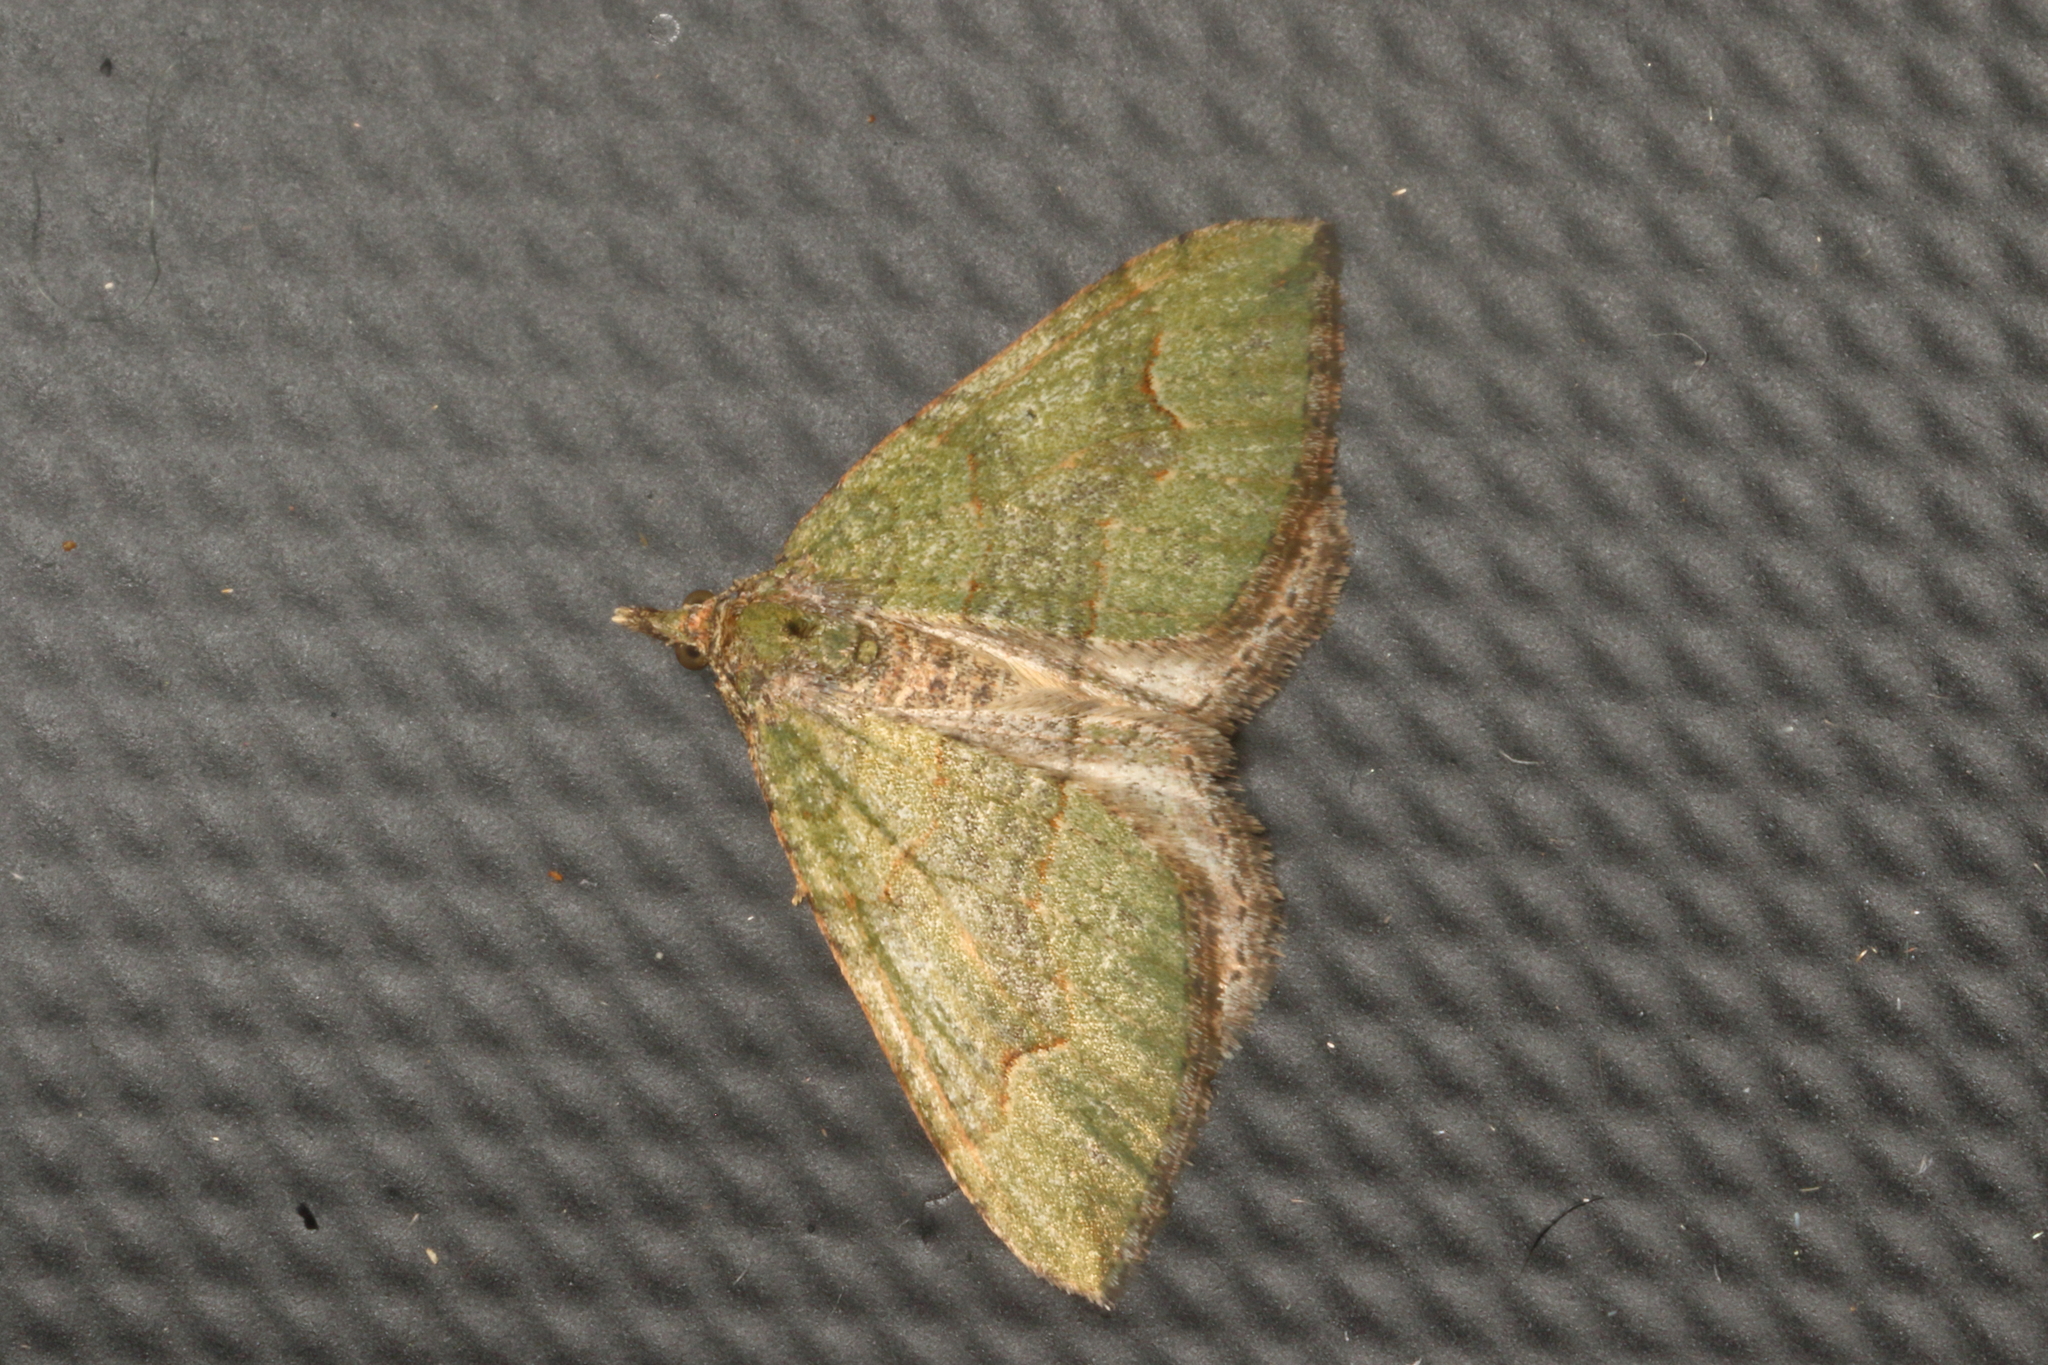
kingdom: Animalia
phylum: Arthropoda
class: Insecta
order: Lepidoptera
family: Geometridae
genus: Epyaxa
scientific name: Epyaxa rosearia
